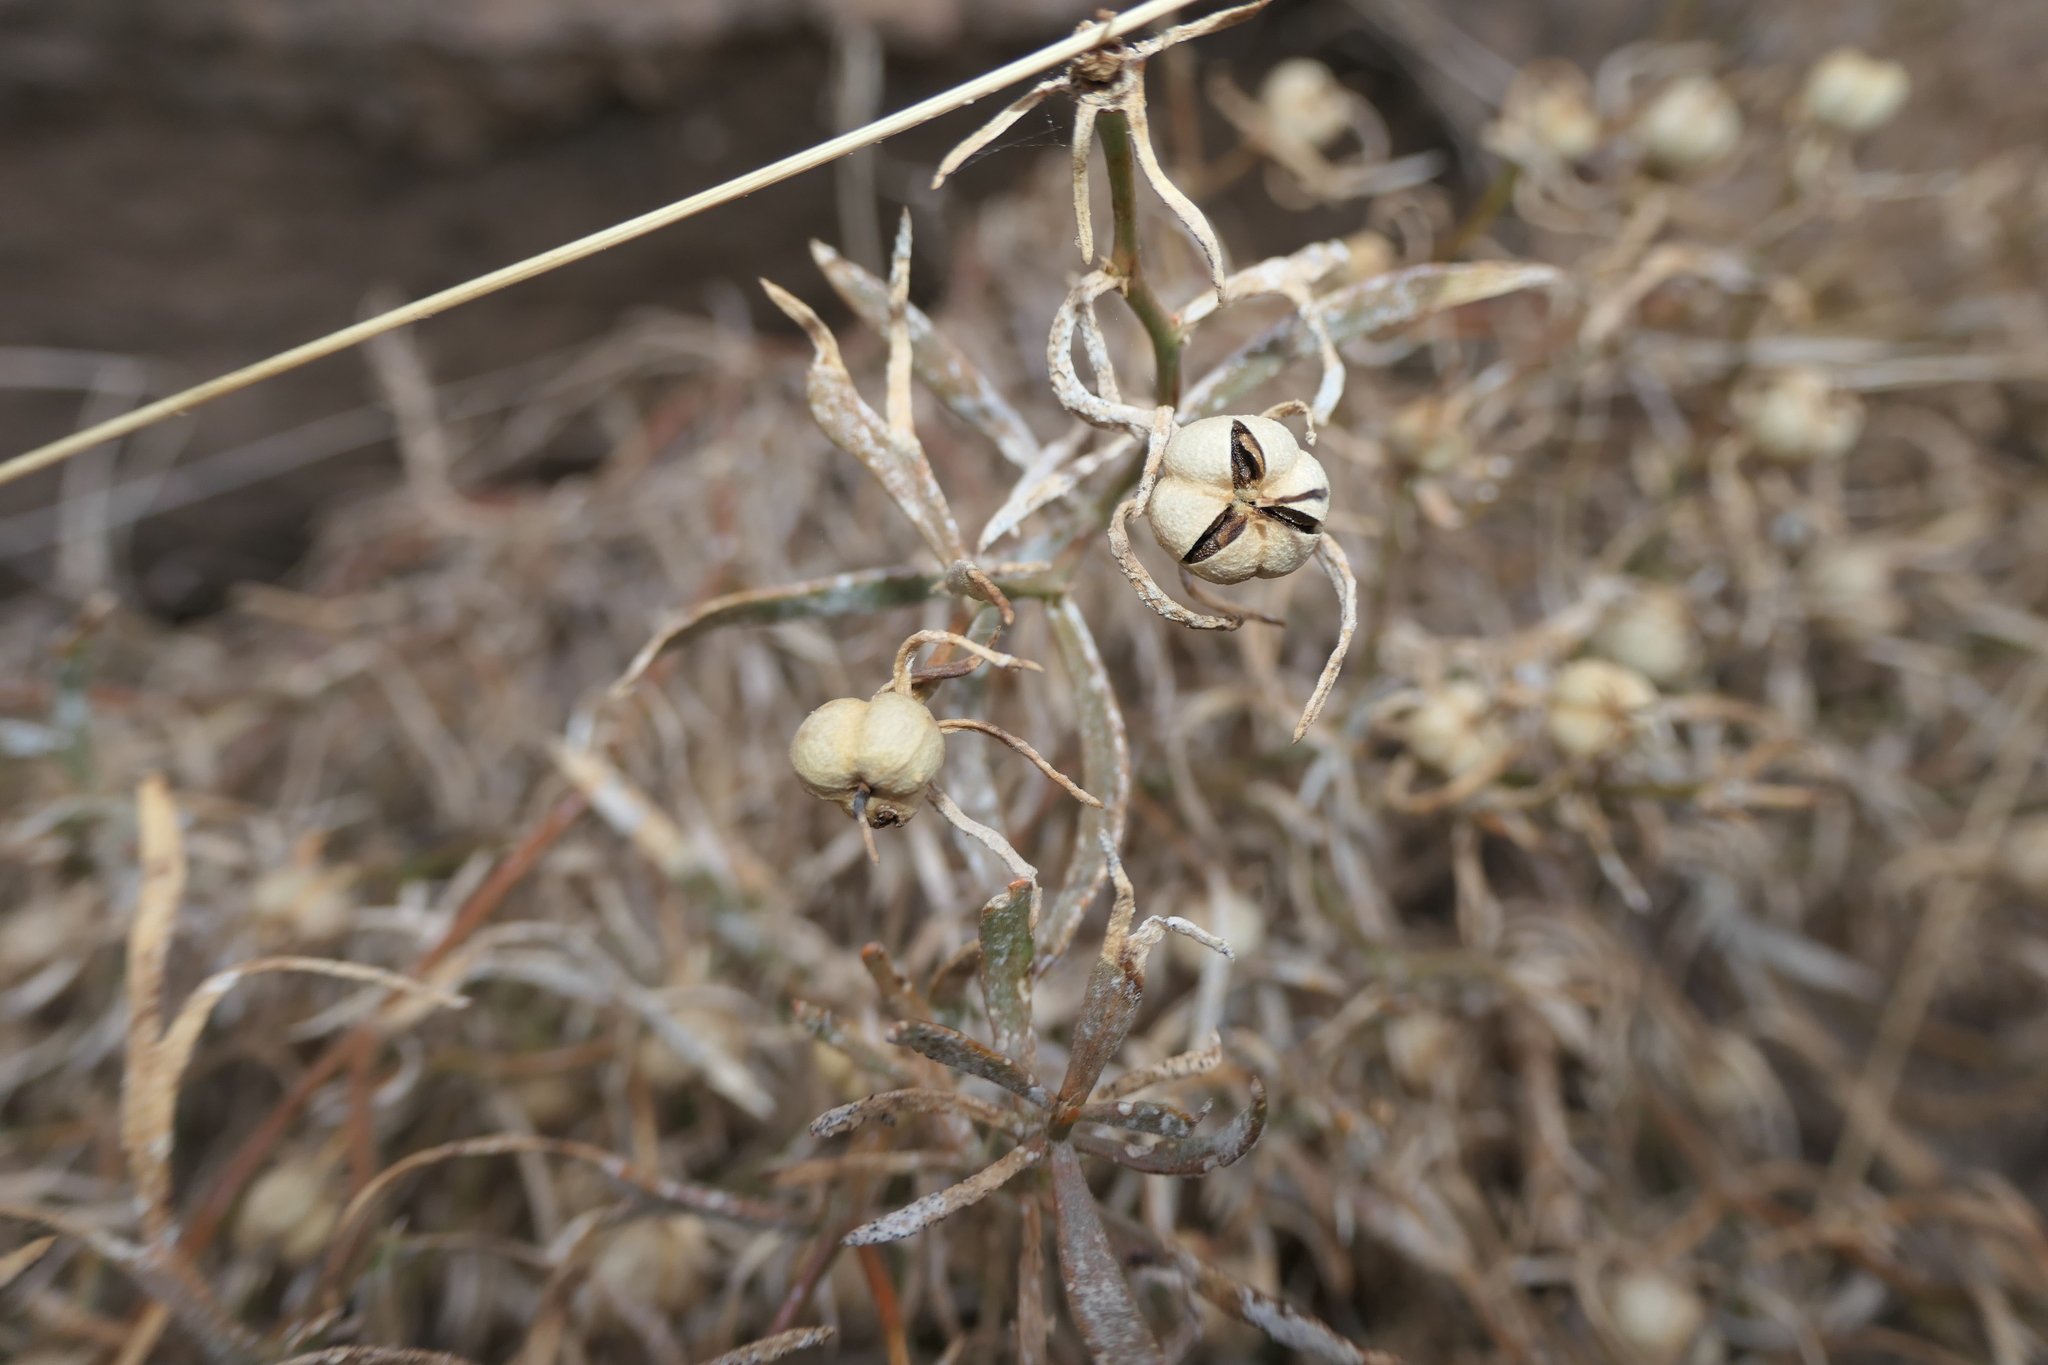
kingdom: Plantae
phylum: Tracheophyta
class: Magnoliopsida
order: Sapindales
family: Tetradiclidaceae
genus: Peganum
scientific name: Peganum harmala
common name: Harmal peganum
